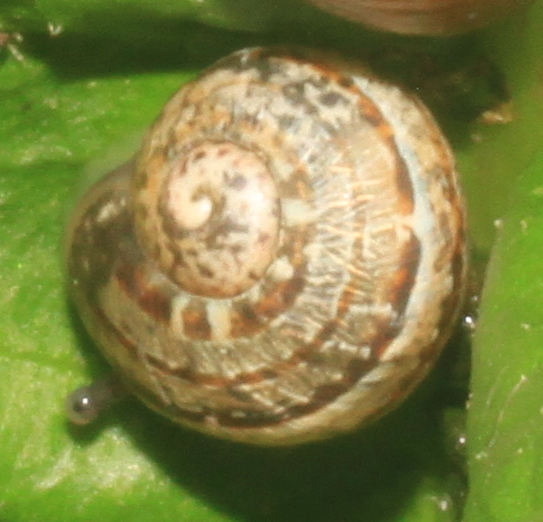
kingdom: Animalia
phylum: Mollusca
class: Gastropoda
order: Stylommatophora
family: Helicidae
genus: Cornu
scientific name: Cornu aspersum
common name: Brown garden snail
